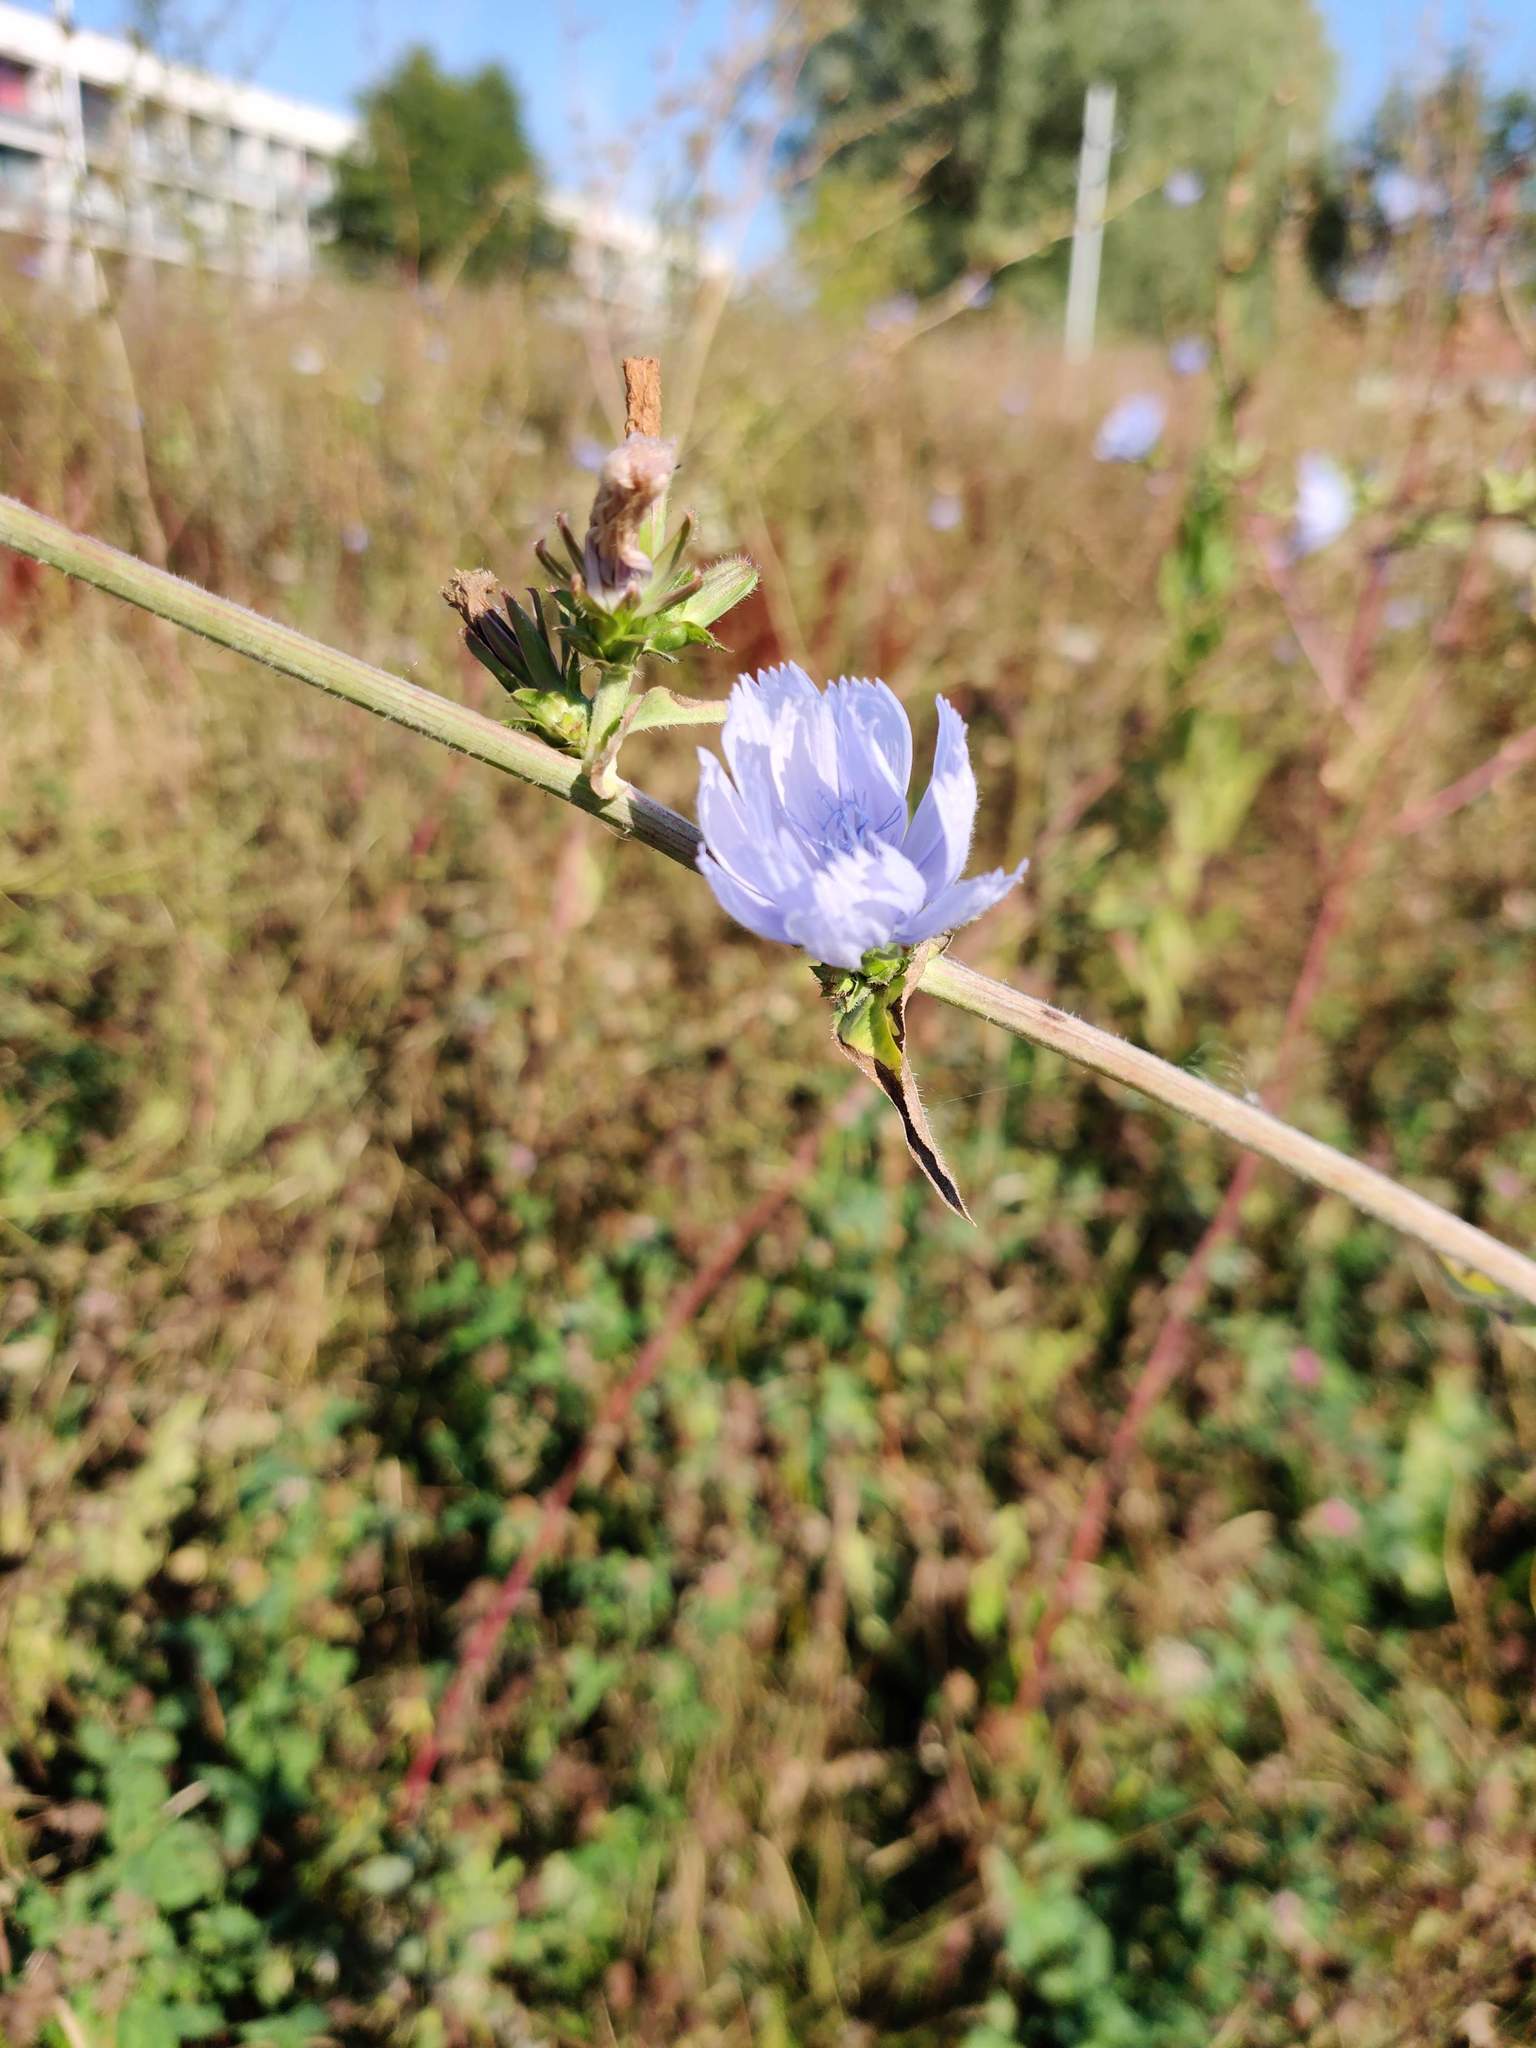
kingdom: Plantae
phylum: Tracheophyta
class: Magnoliopsida
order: Asterales
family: Asteraceae
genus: Cichorium
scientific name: Cichorium intybus
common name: Chicory
